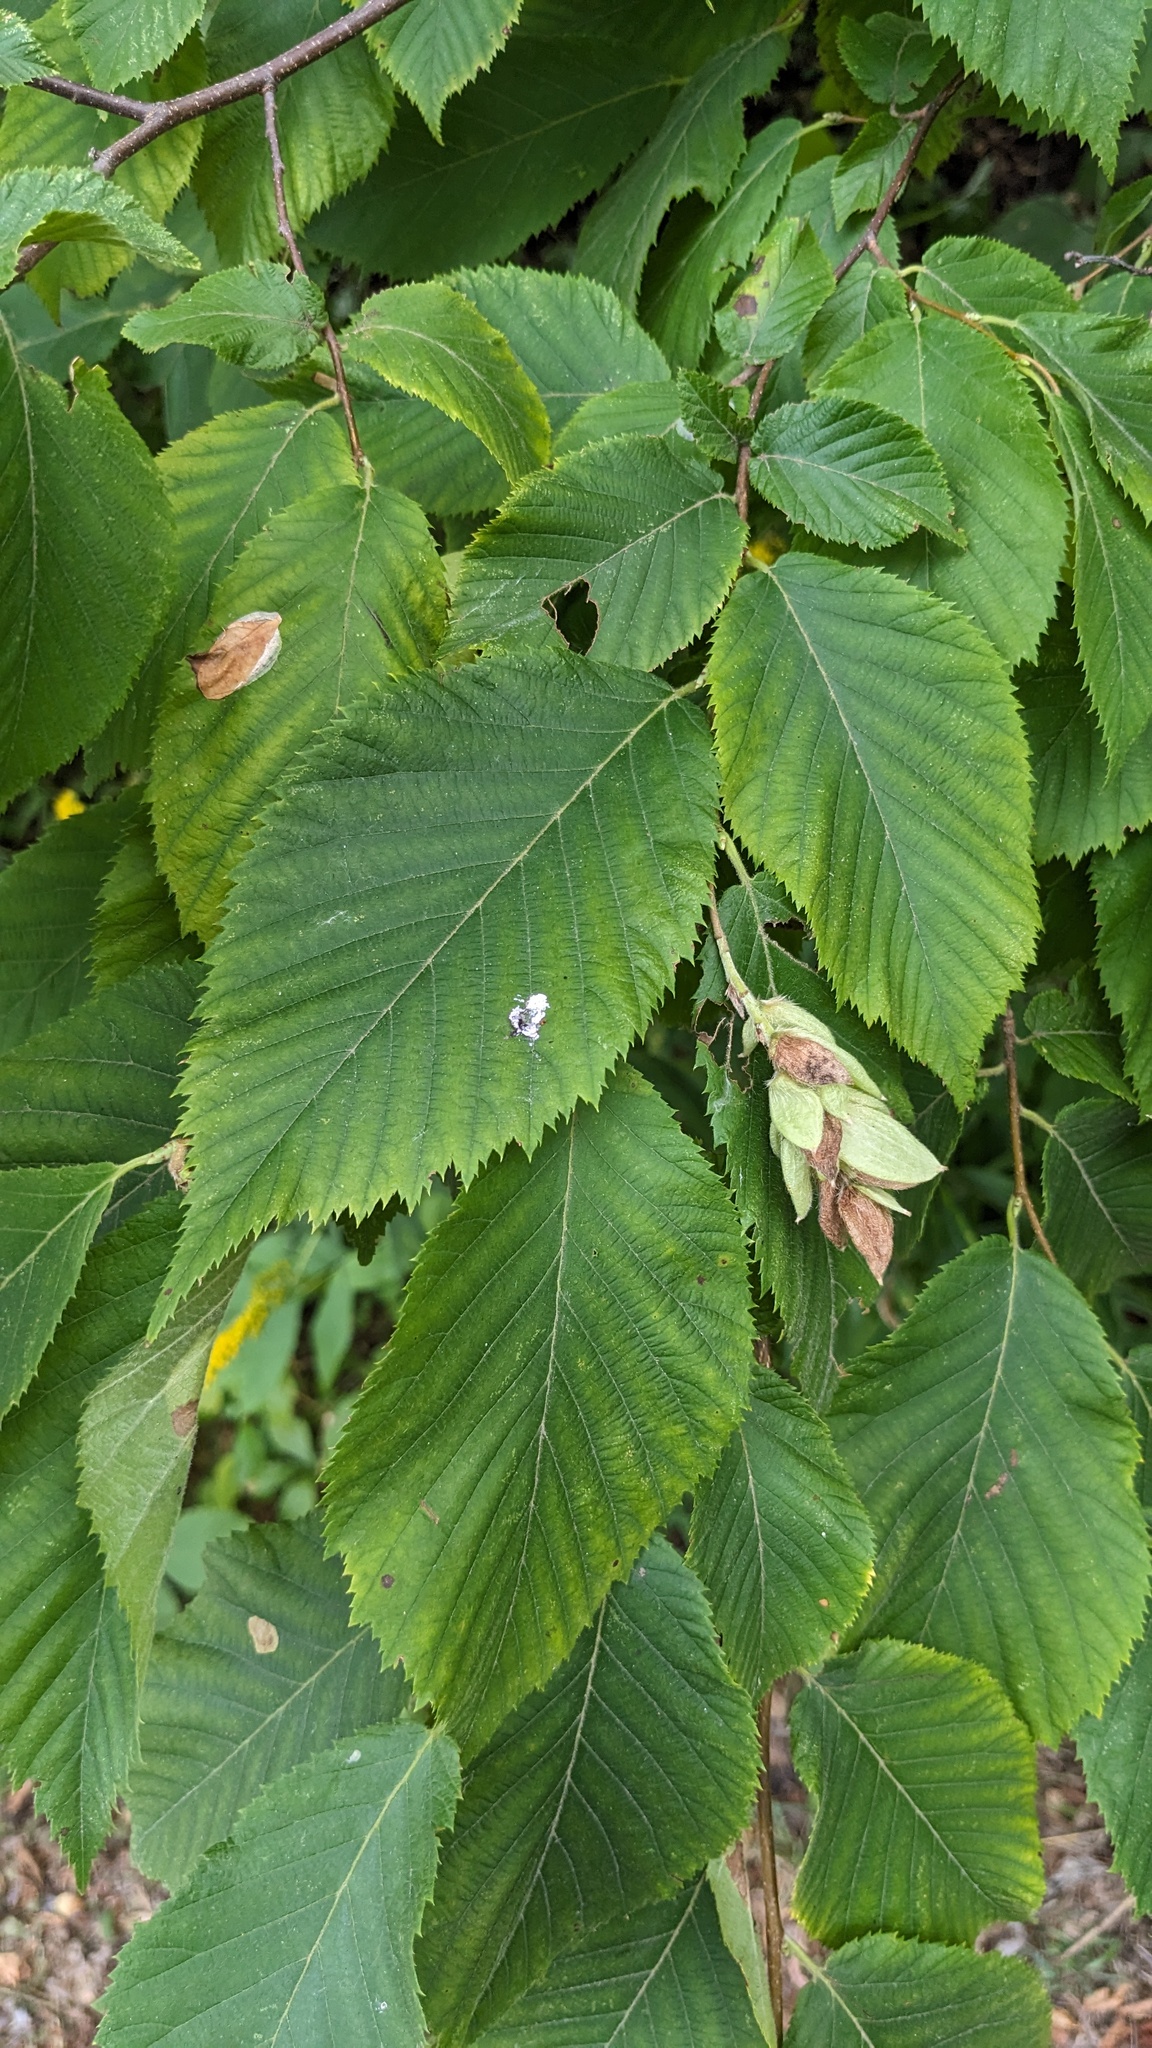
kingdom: Plantae
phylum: Tracheophyta
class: Magnoliopsida
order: Fagales
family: Betulaceae
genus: Ostrya
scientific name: Ostrya virginiana
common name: Ironwood
